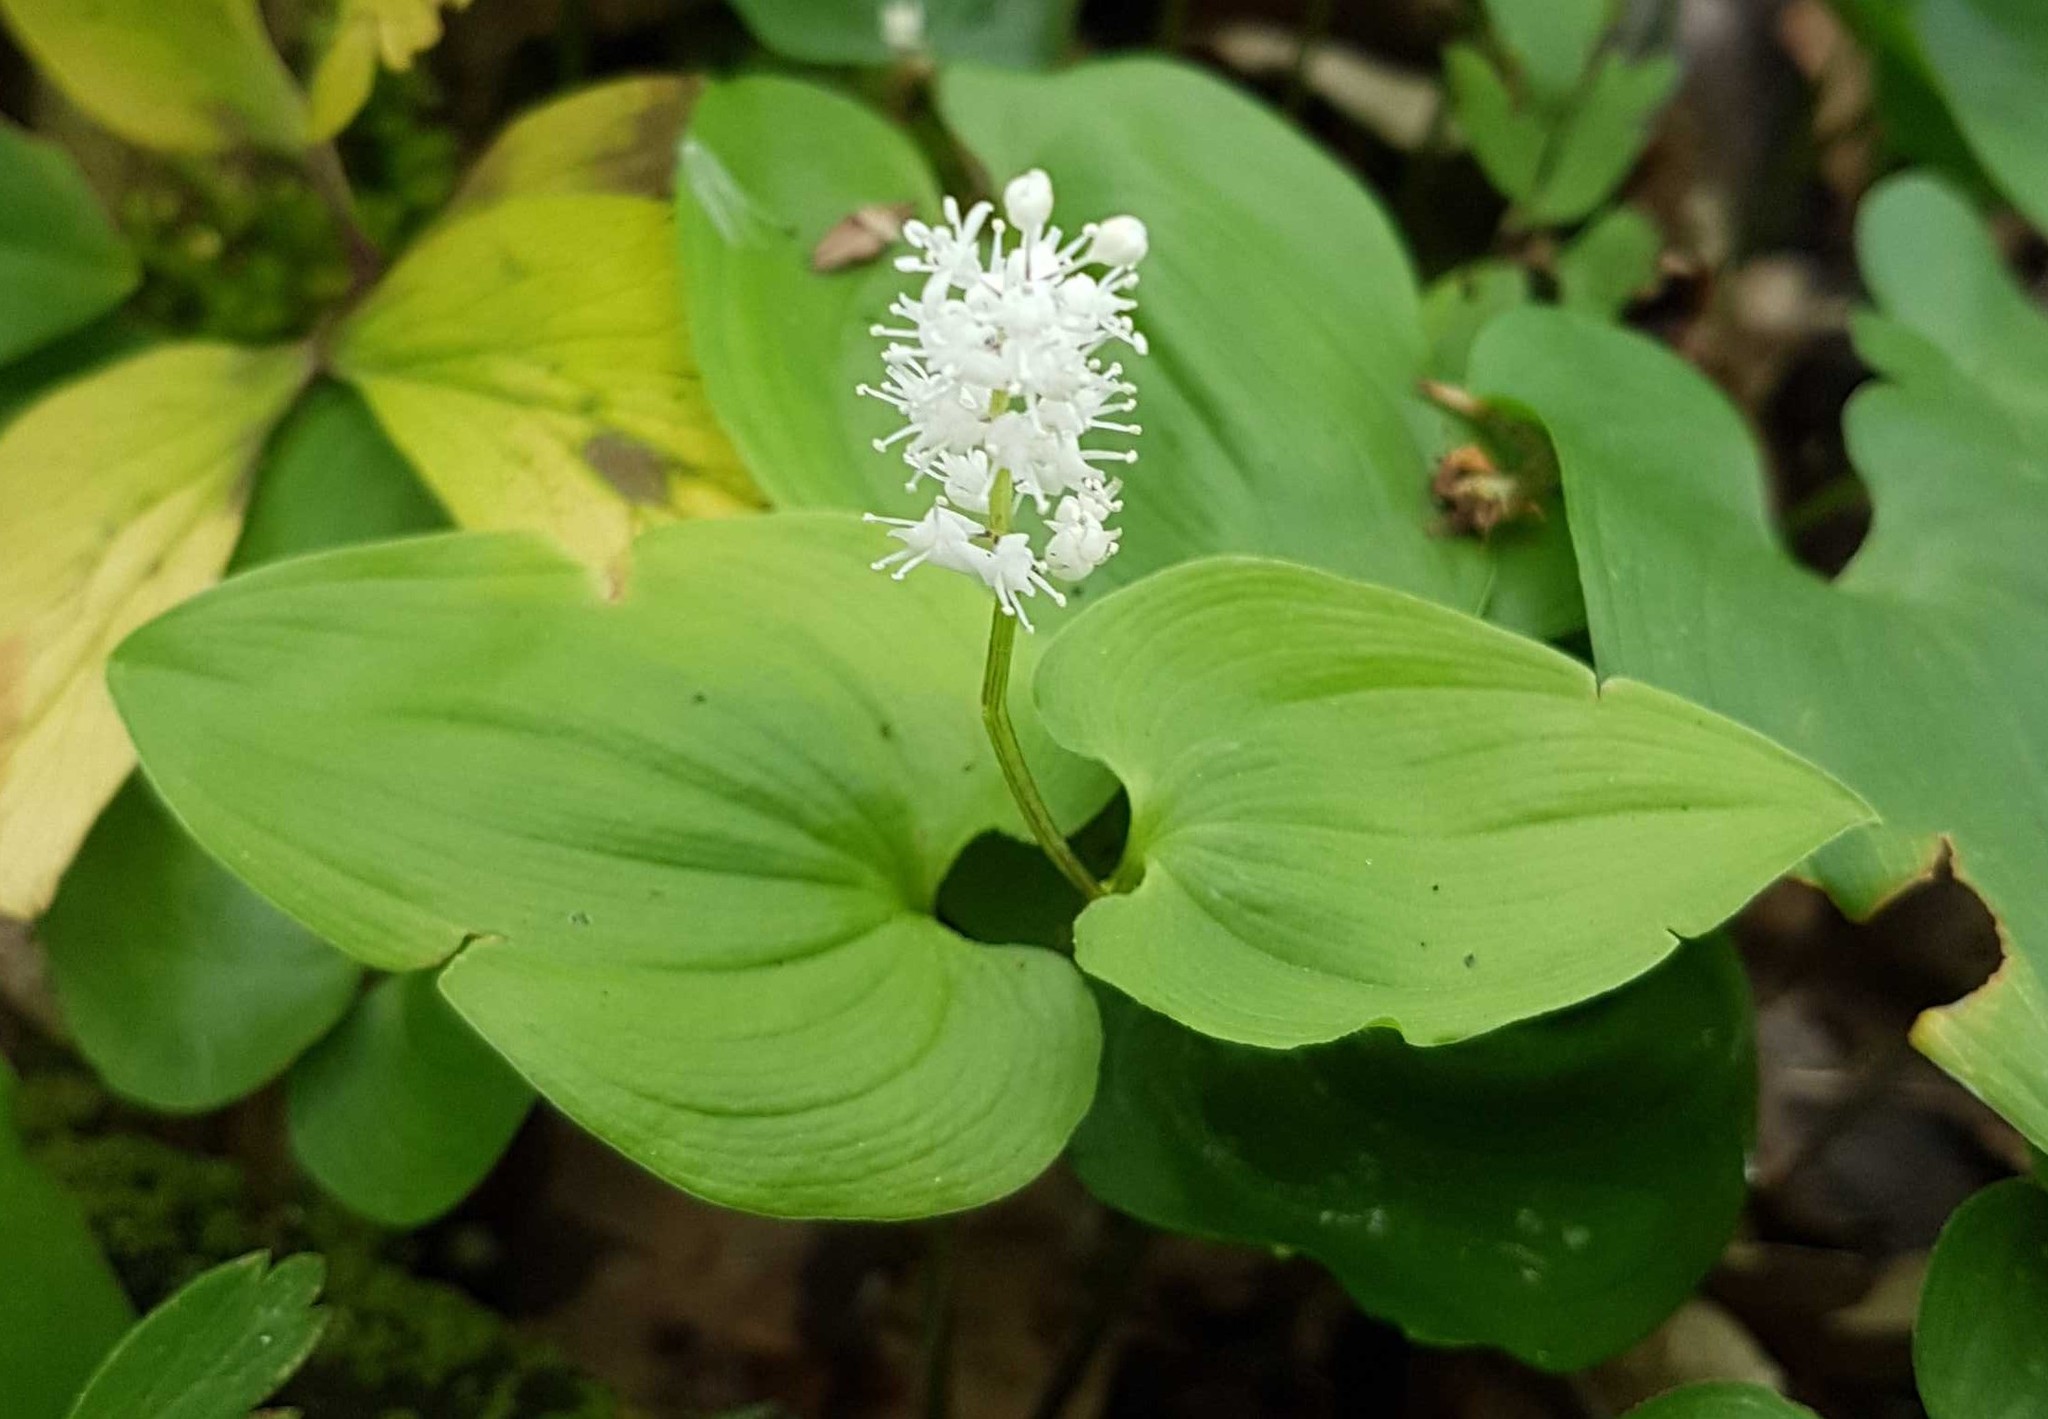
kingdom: Plantae
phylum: Tracheophyta
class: Liliopsida
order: Asparagales
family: Asparagaceae
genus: Maianthemum
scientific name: Maianthemum bifolium
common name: May lily
